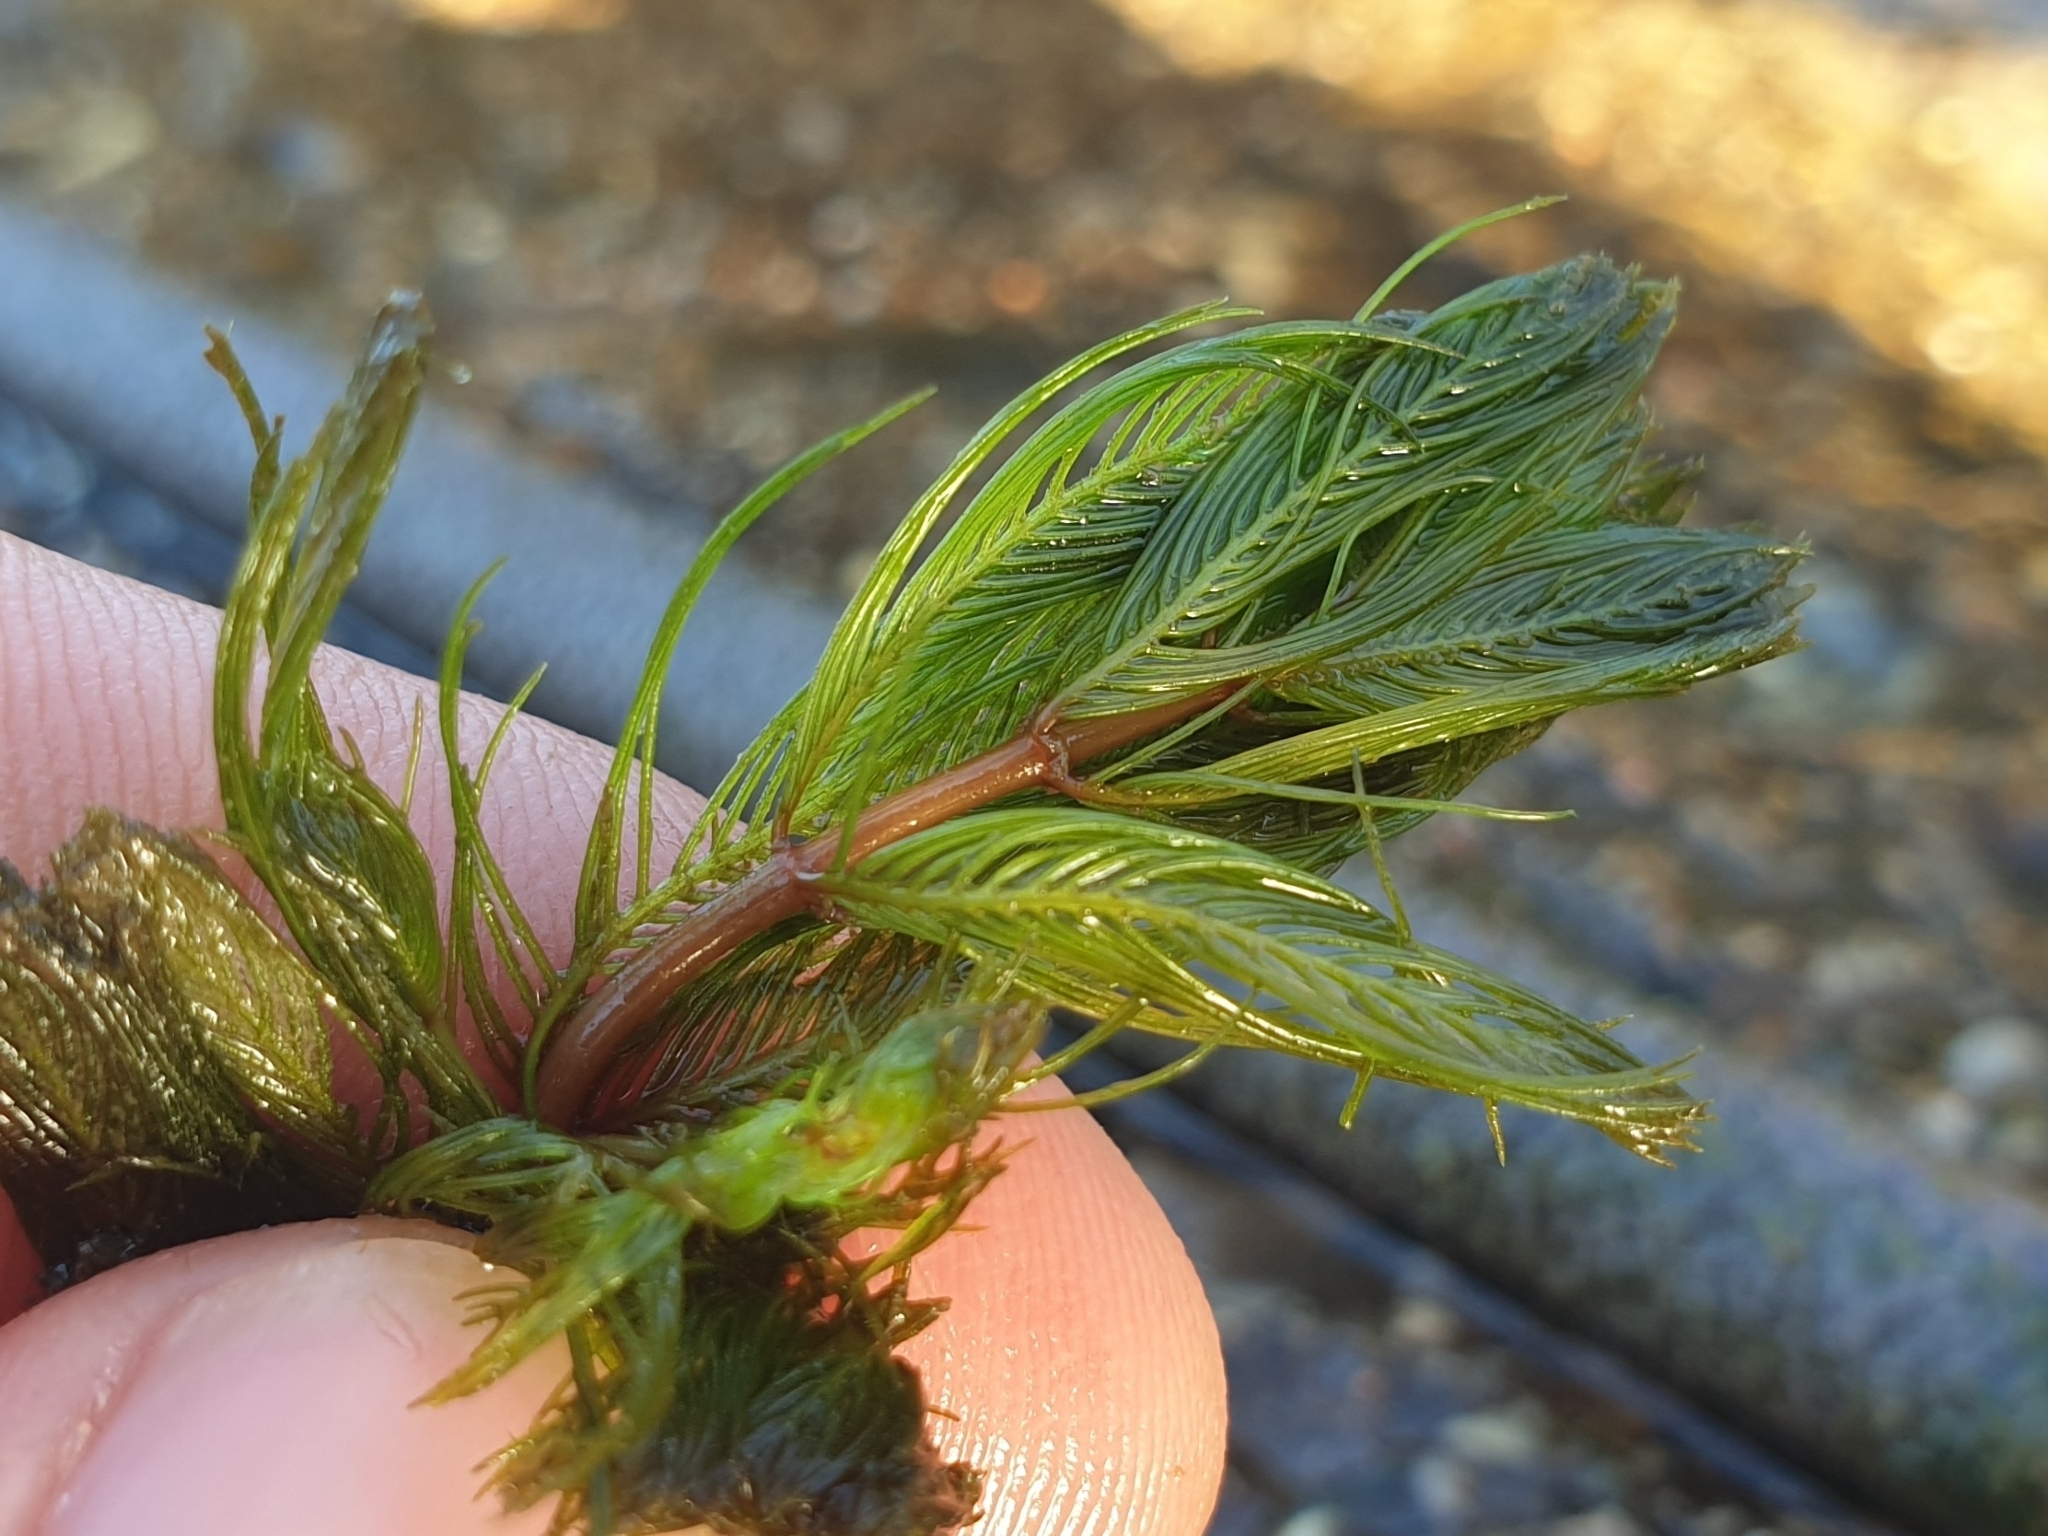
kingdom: Plantae
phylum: Tracheophyta
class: Magnoliopsida
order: Saxifragales
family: Haloragaceae
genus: Myriophyllum
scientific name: Myriophyllum spicatum
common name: Spiked water-milfoil
